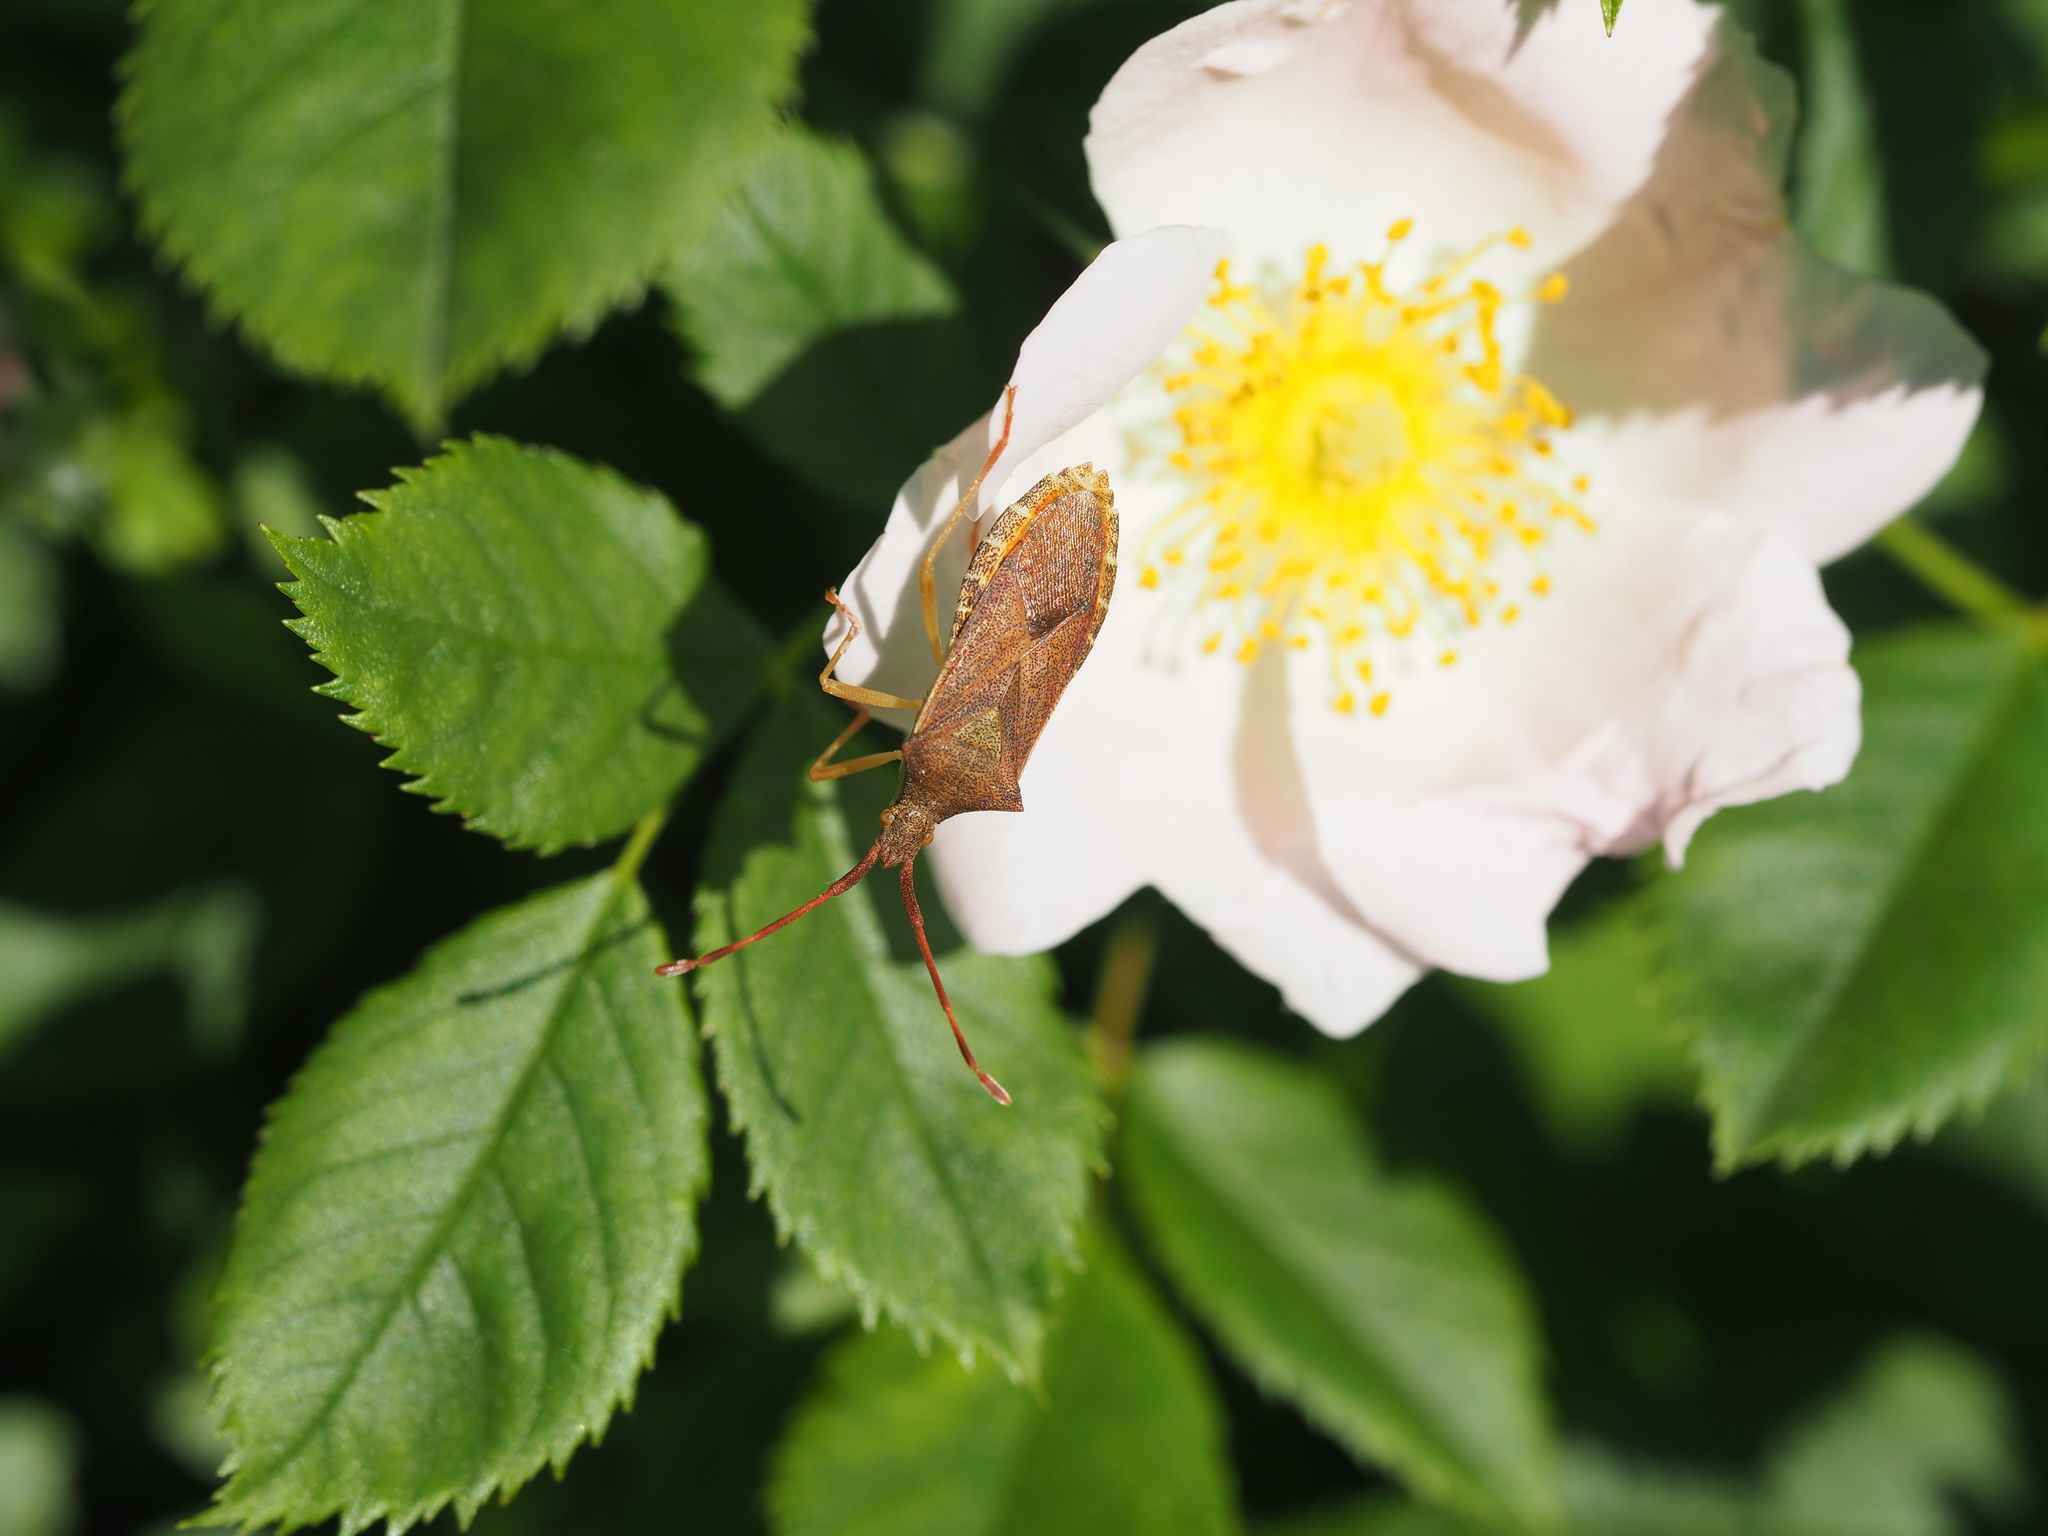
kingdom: Animalia
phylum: Arthropoda
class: Insecta
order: Hemiptera
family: Coreidae
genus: Gonocerus
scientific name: Gonocerus acuteangulatus
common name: Box bug
